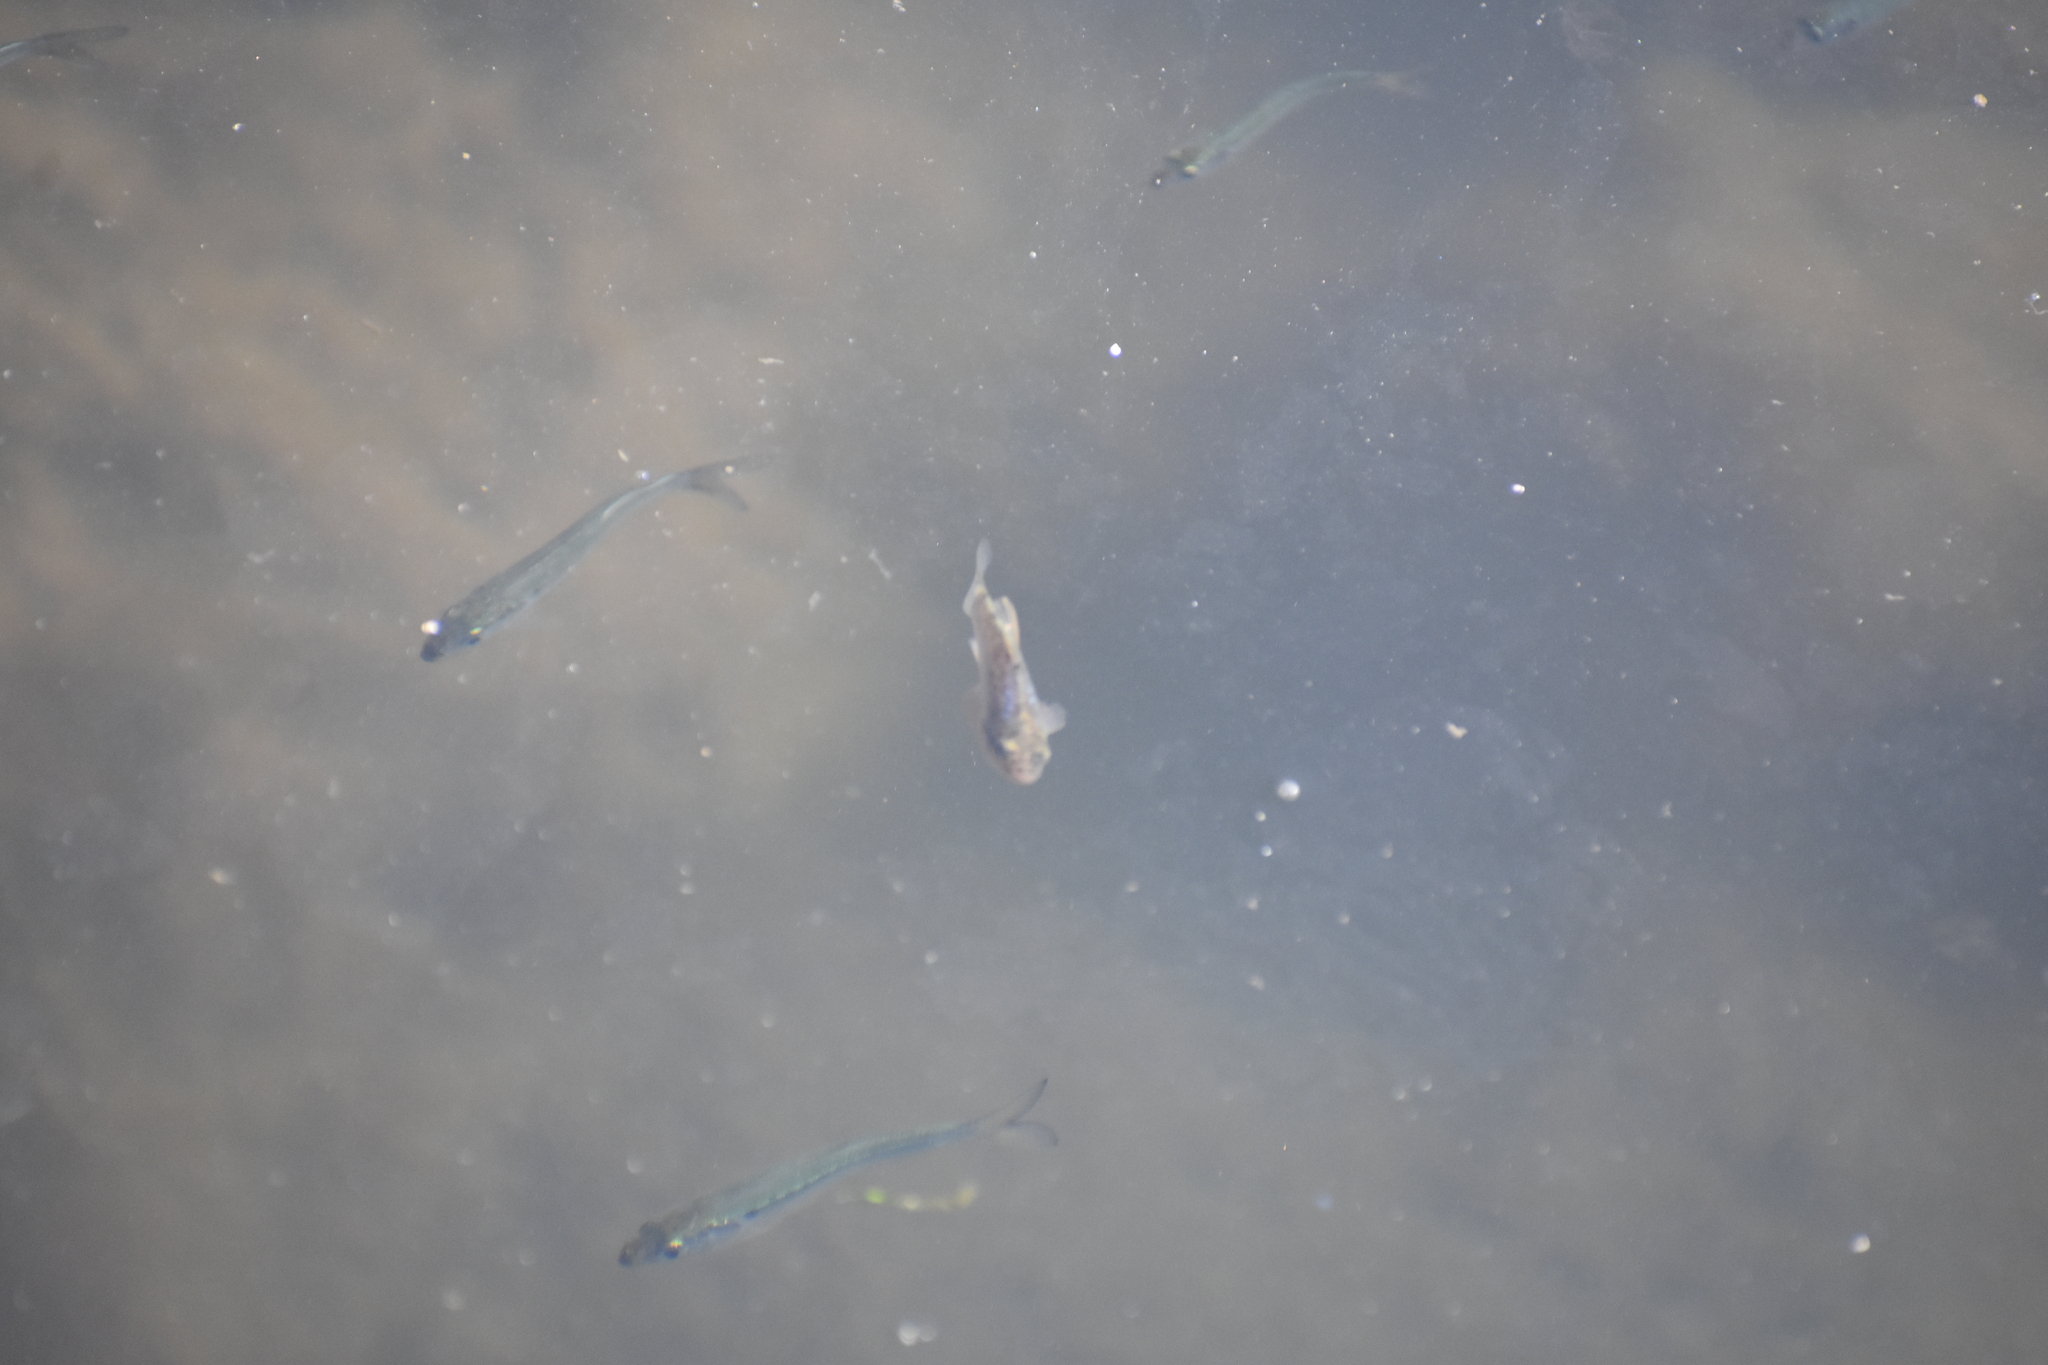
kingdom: Animalia
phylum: Chordata
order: Cyprinodontiformes
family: Cyprinodontidae
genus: Cyprinodon
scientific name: Cyprinodon variegatus
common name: Sheepshead minnow
